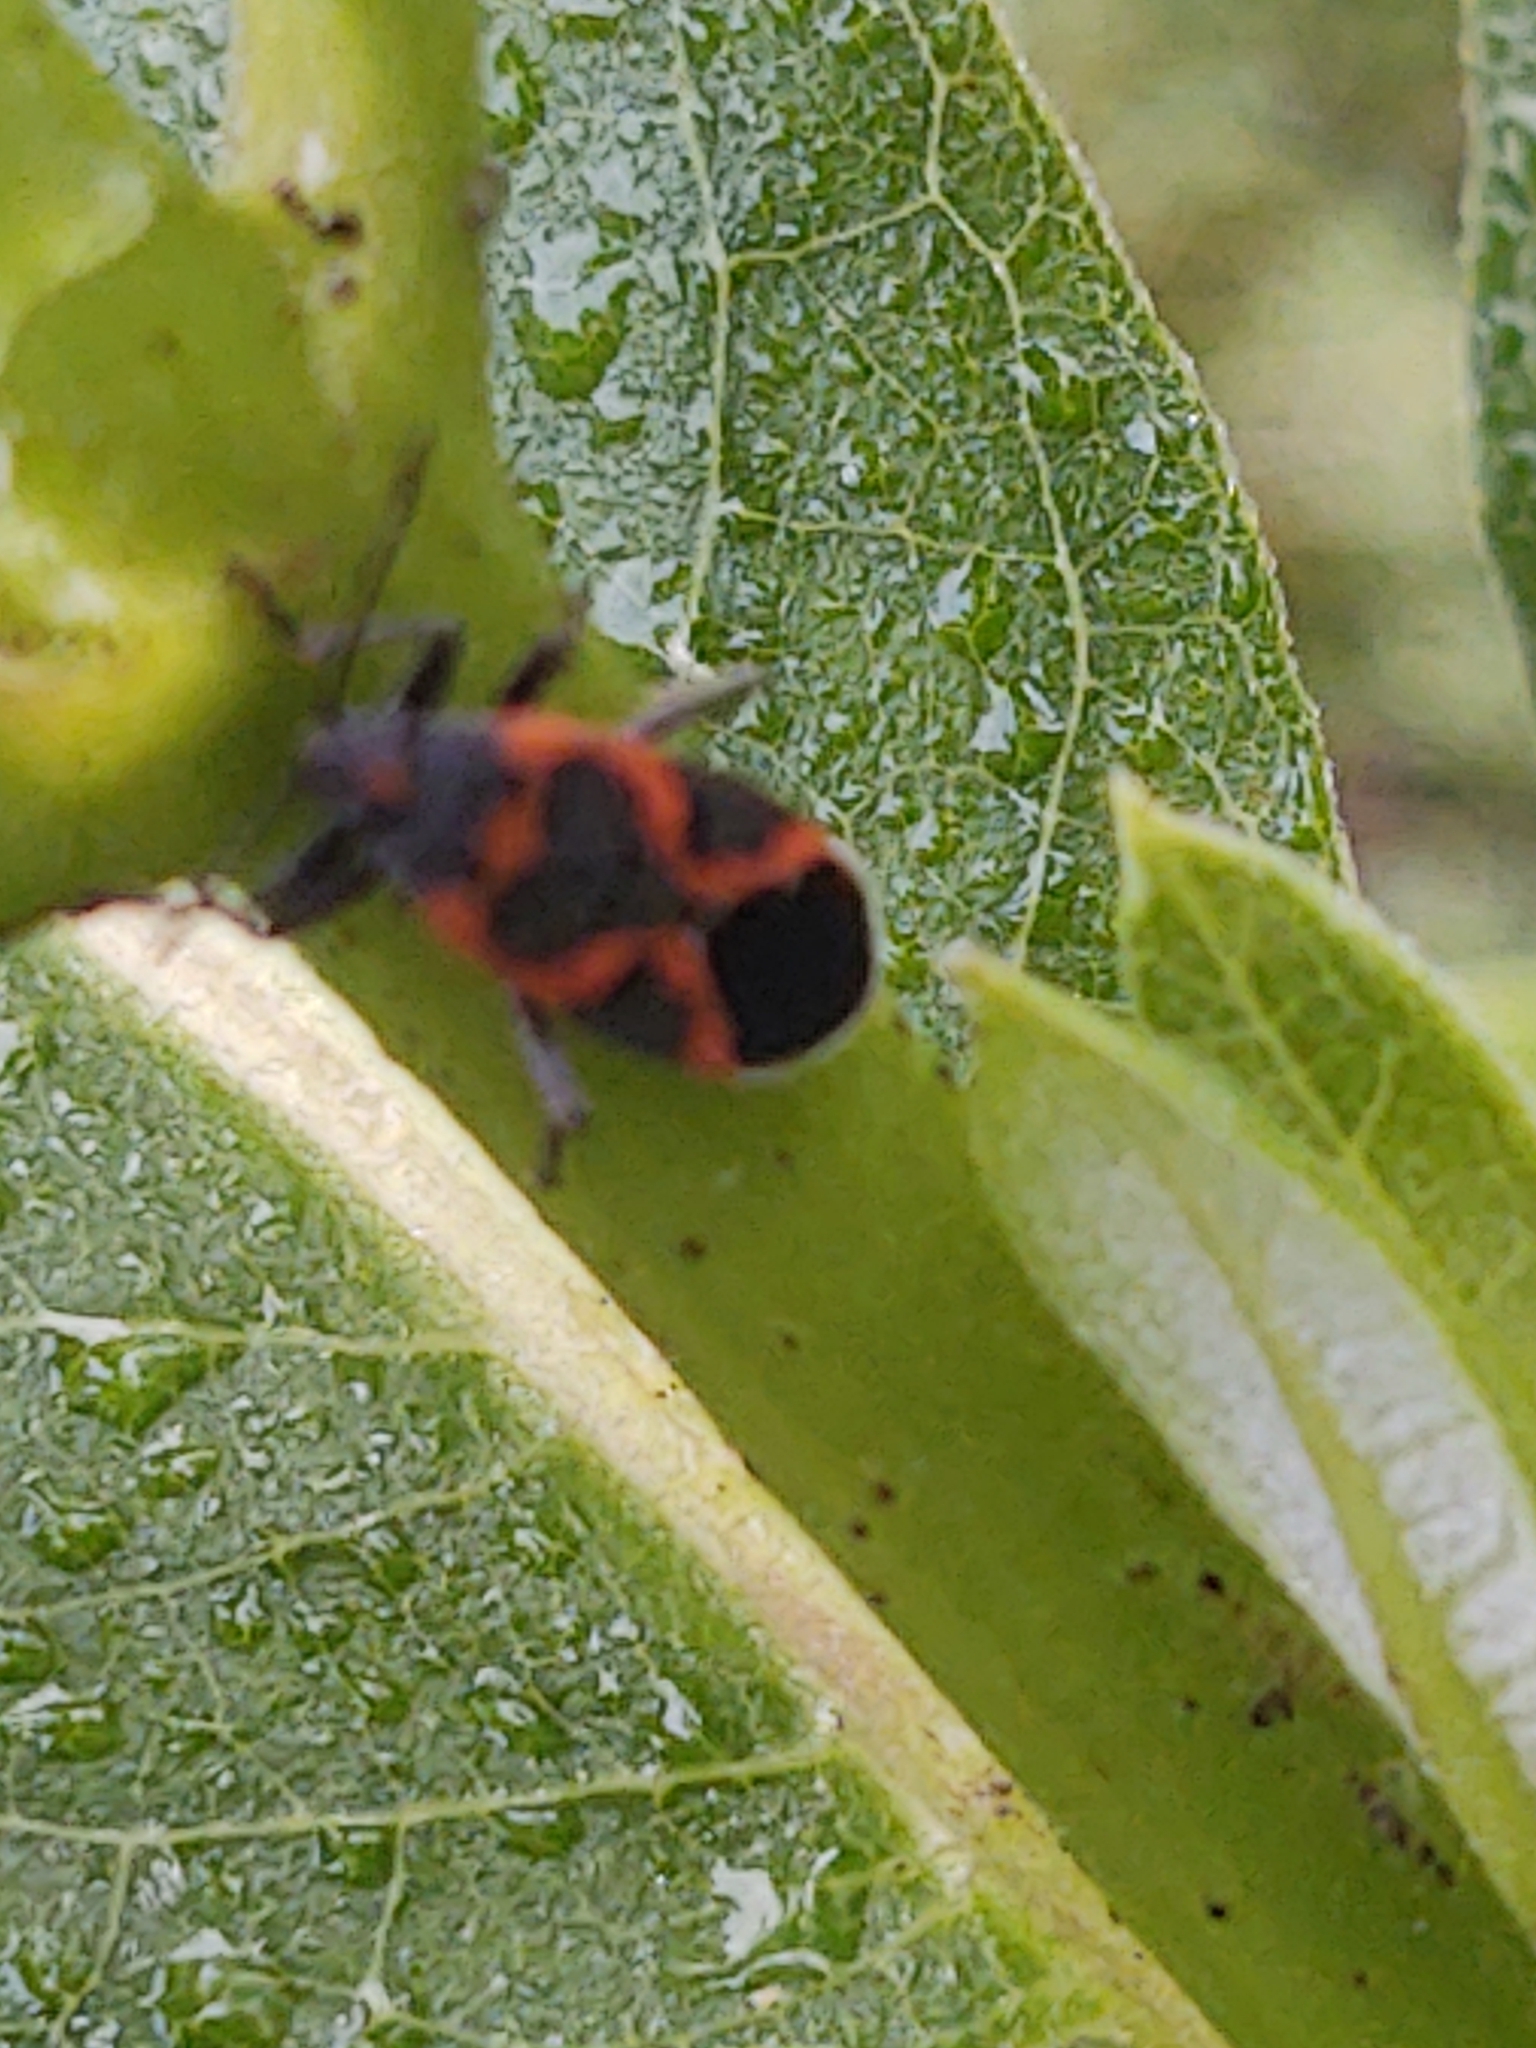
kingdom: Animalia
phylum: Arthropoda
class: Insecta
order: Hemiptera
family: Lygaeidae
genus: Lygaeus
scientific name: Lygaeus kalmii
